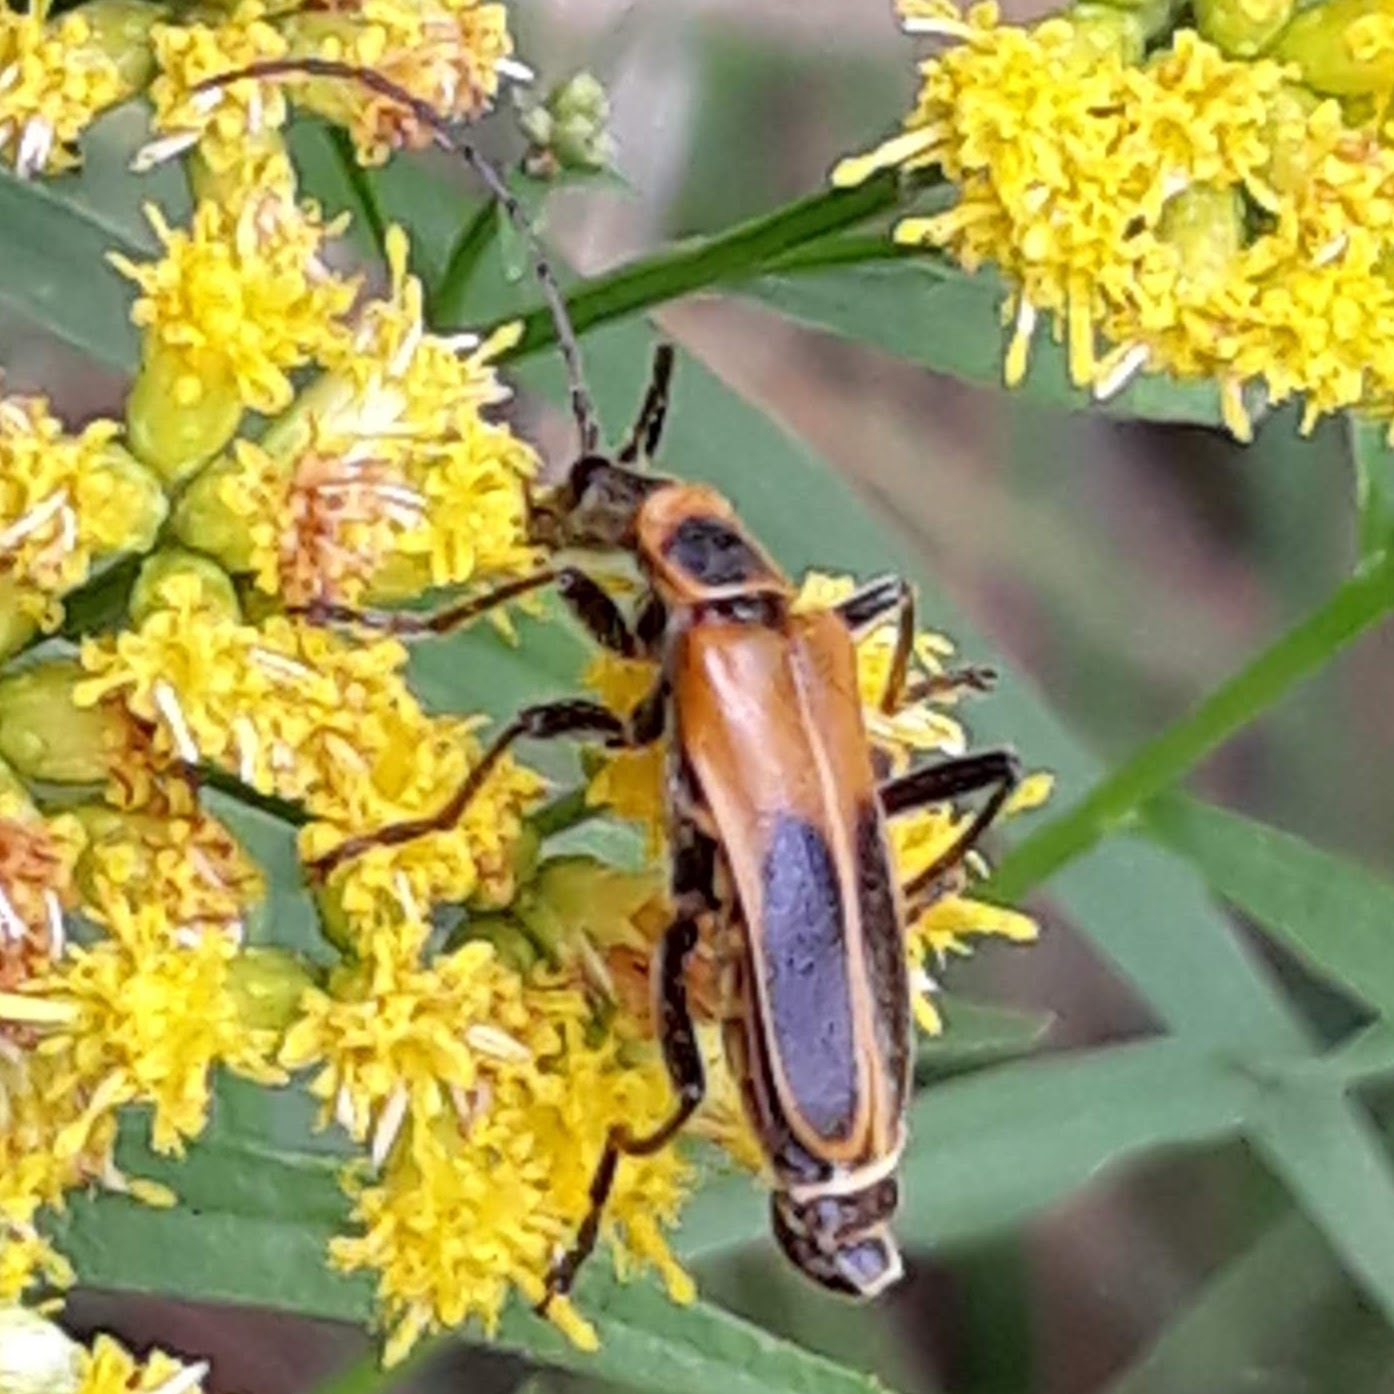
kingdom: Animalia
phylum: Arthropoda
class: Insecta
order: Coleoptera
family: Cantharidae
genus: Chauliognathus
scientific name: Chauliognathus pensylvanicus
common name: Goldenrod soldier beetle
